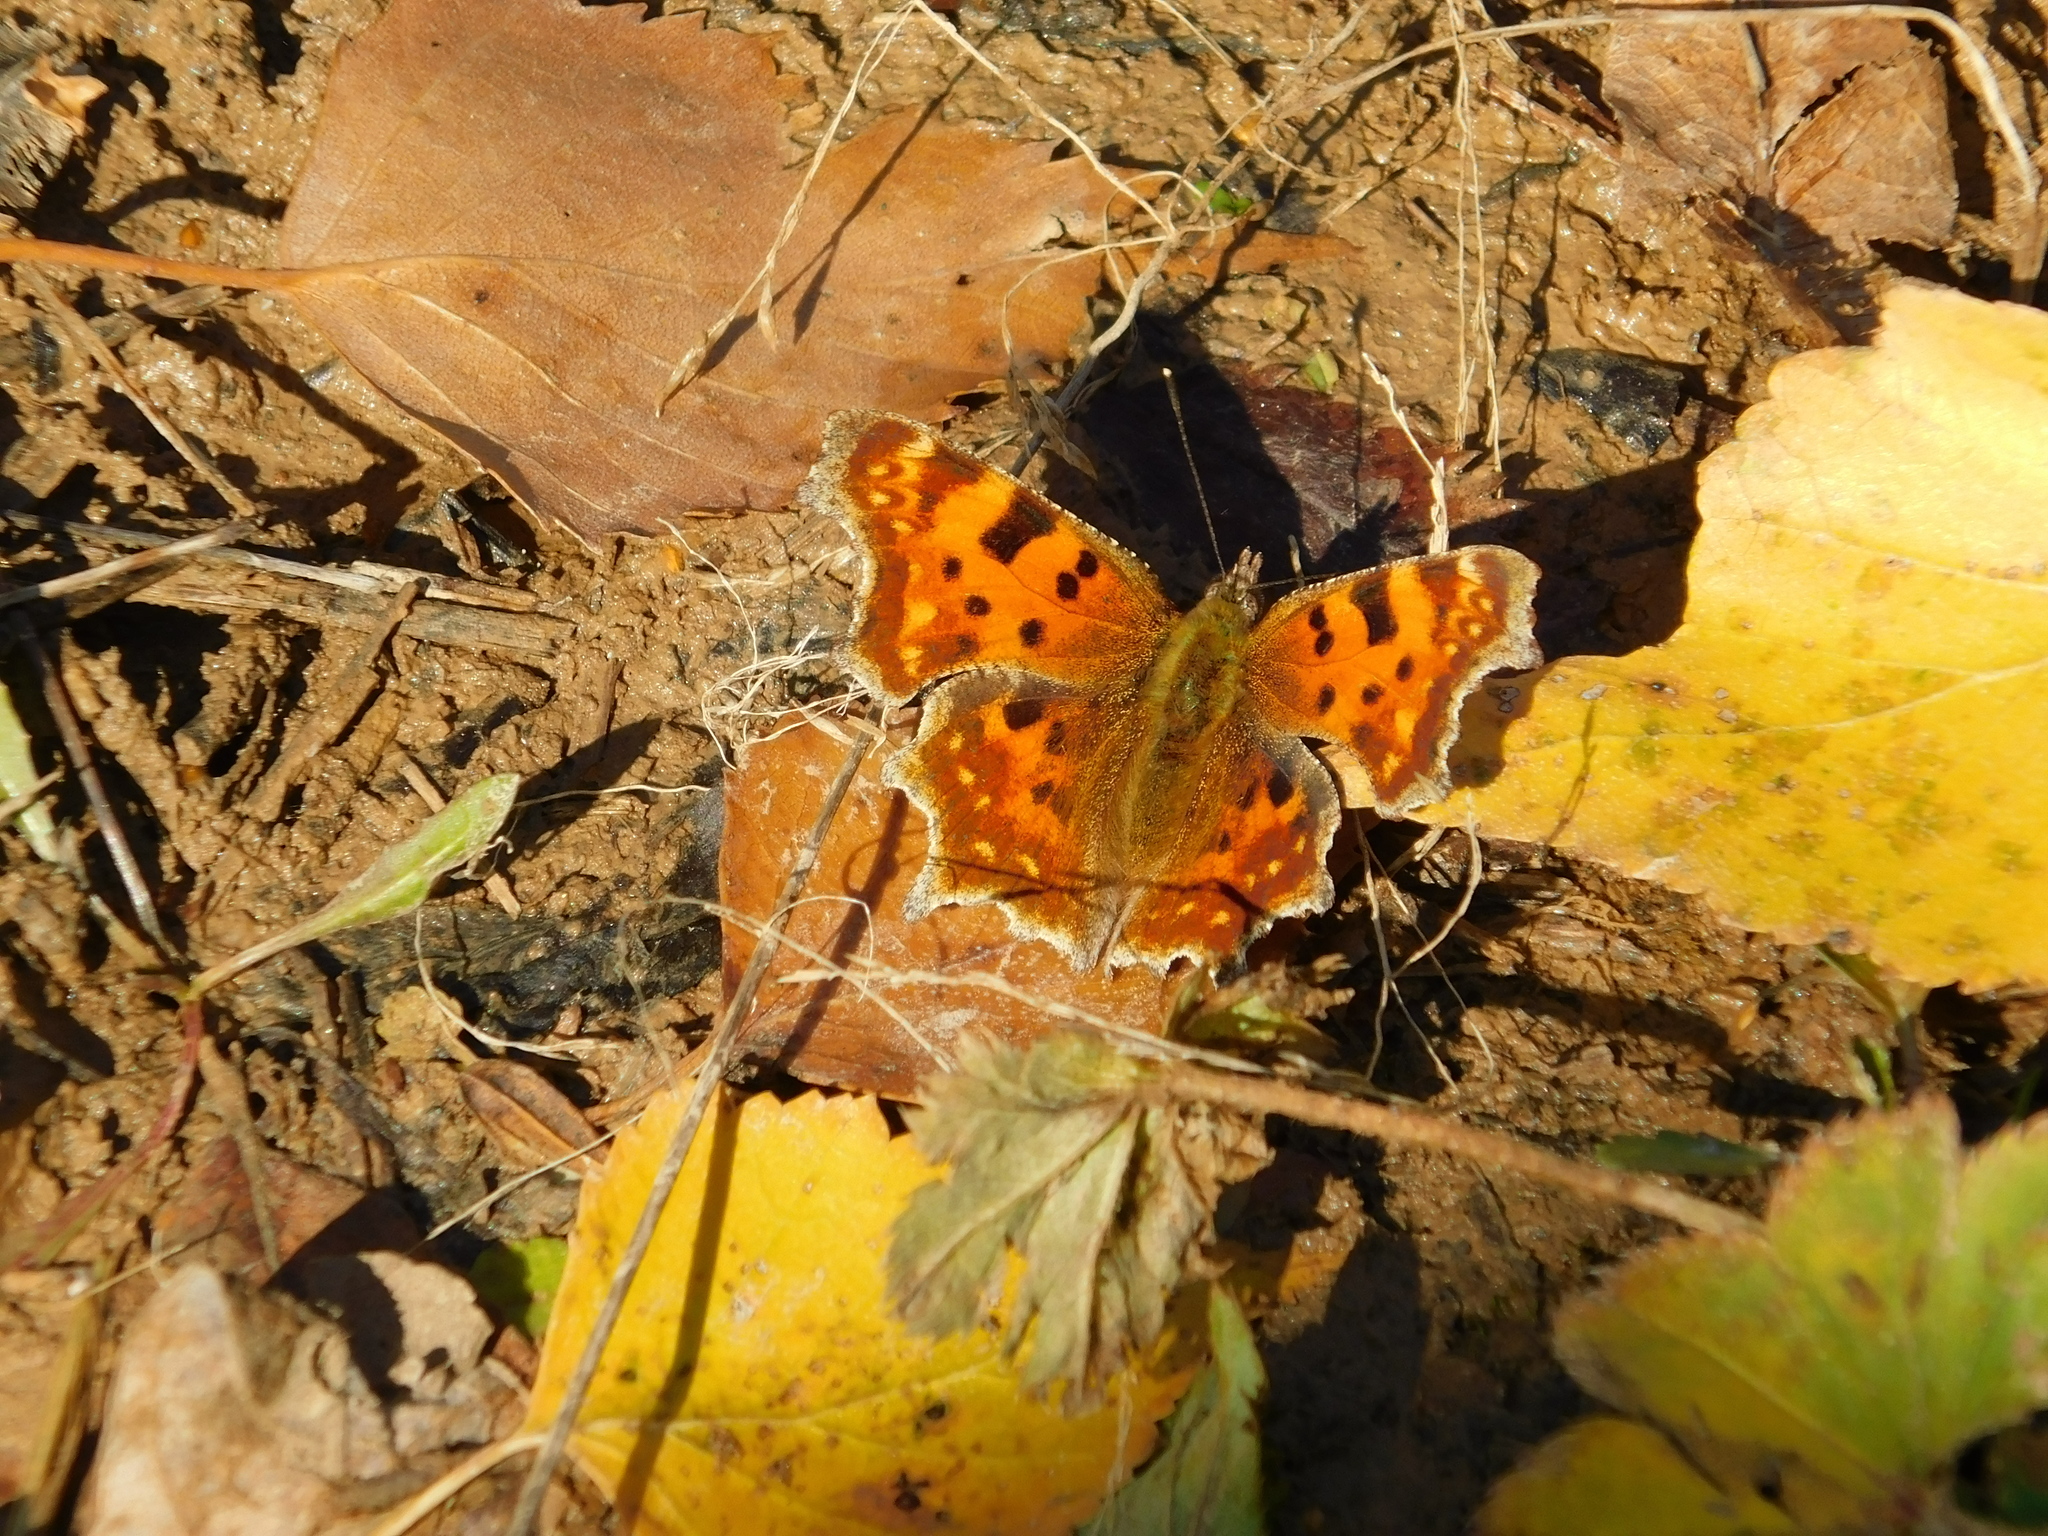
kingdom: Animalia
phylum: Arthropoda
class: Insecta
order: Lepidoptera
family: Nymphalidae
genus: Polygonia
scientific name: Polygonia c-album
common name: Comma
